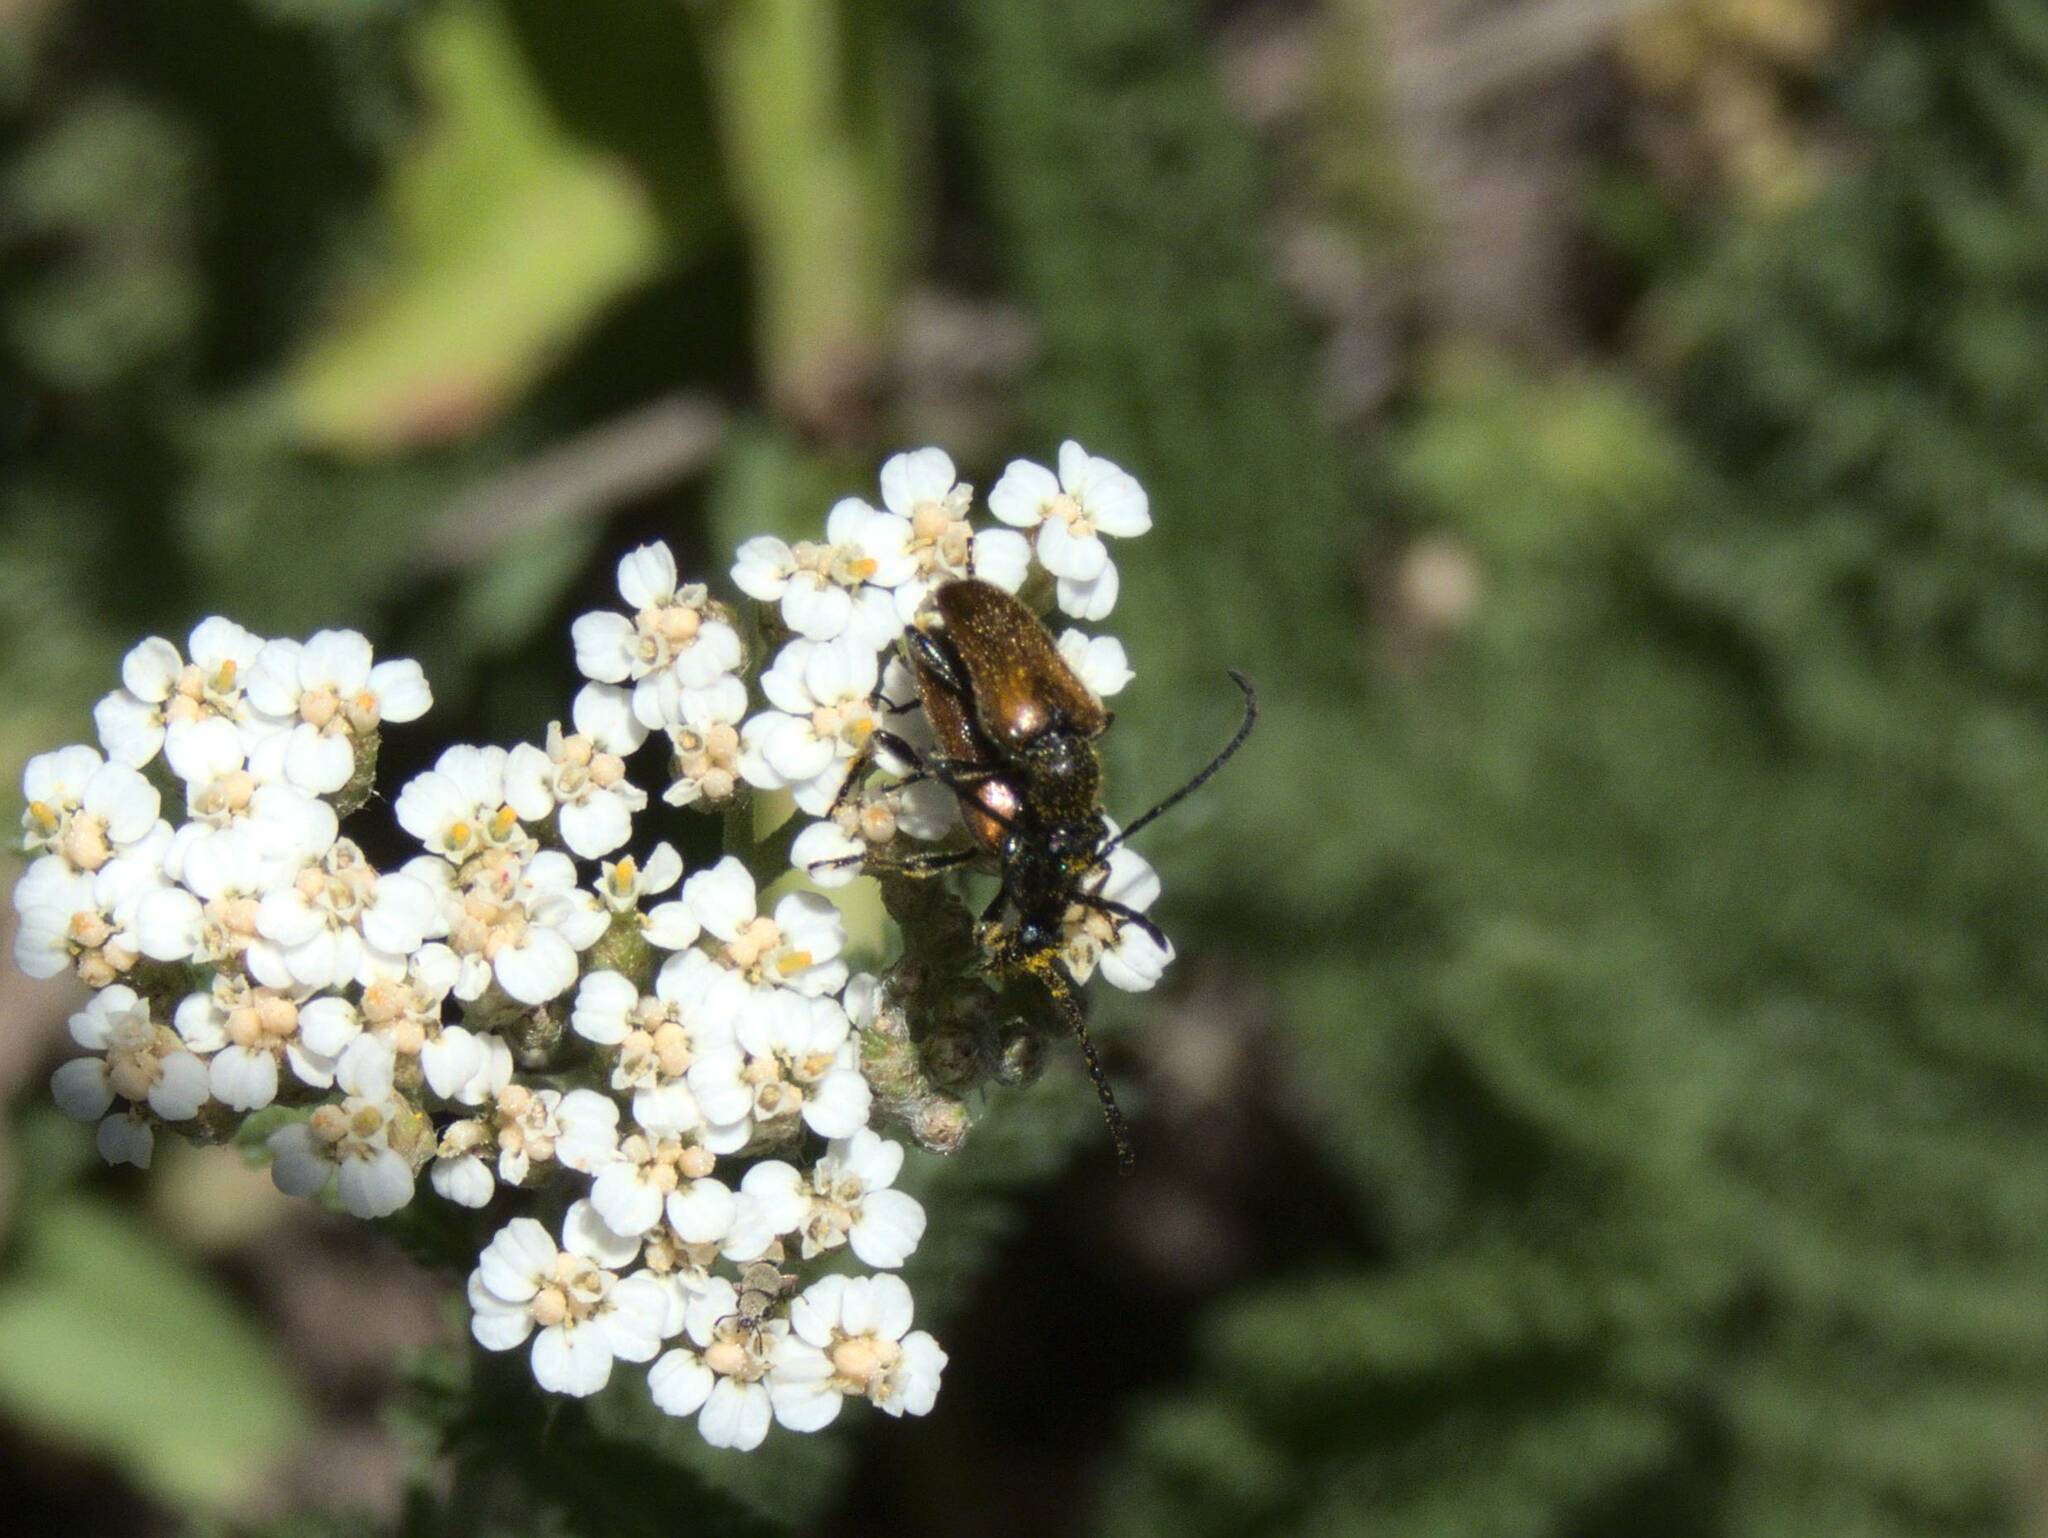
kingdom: Animalia
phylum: Arthropoda
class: Insecta
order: Coleoptera
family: Cerambycidae
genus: Pseudovadonia
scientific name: Pseudovadonia livida
